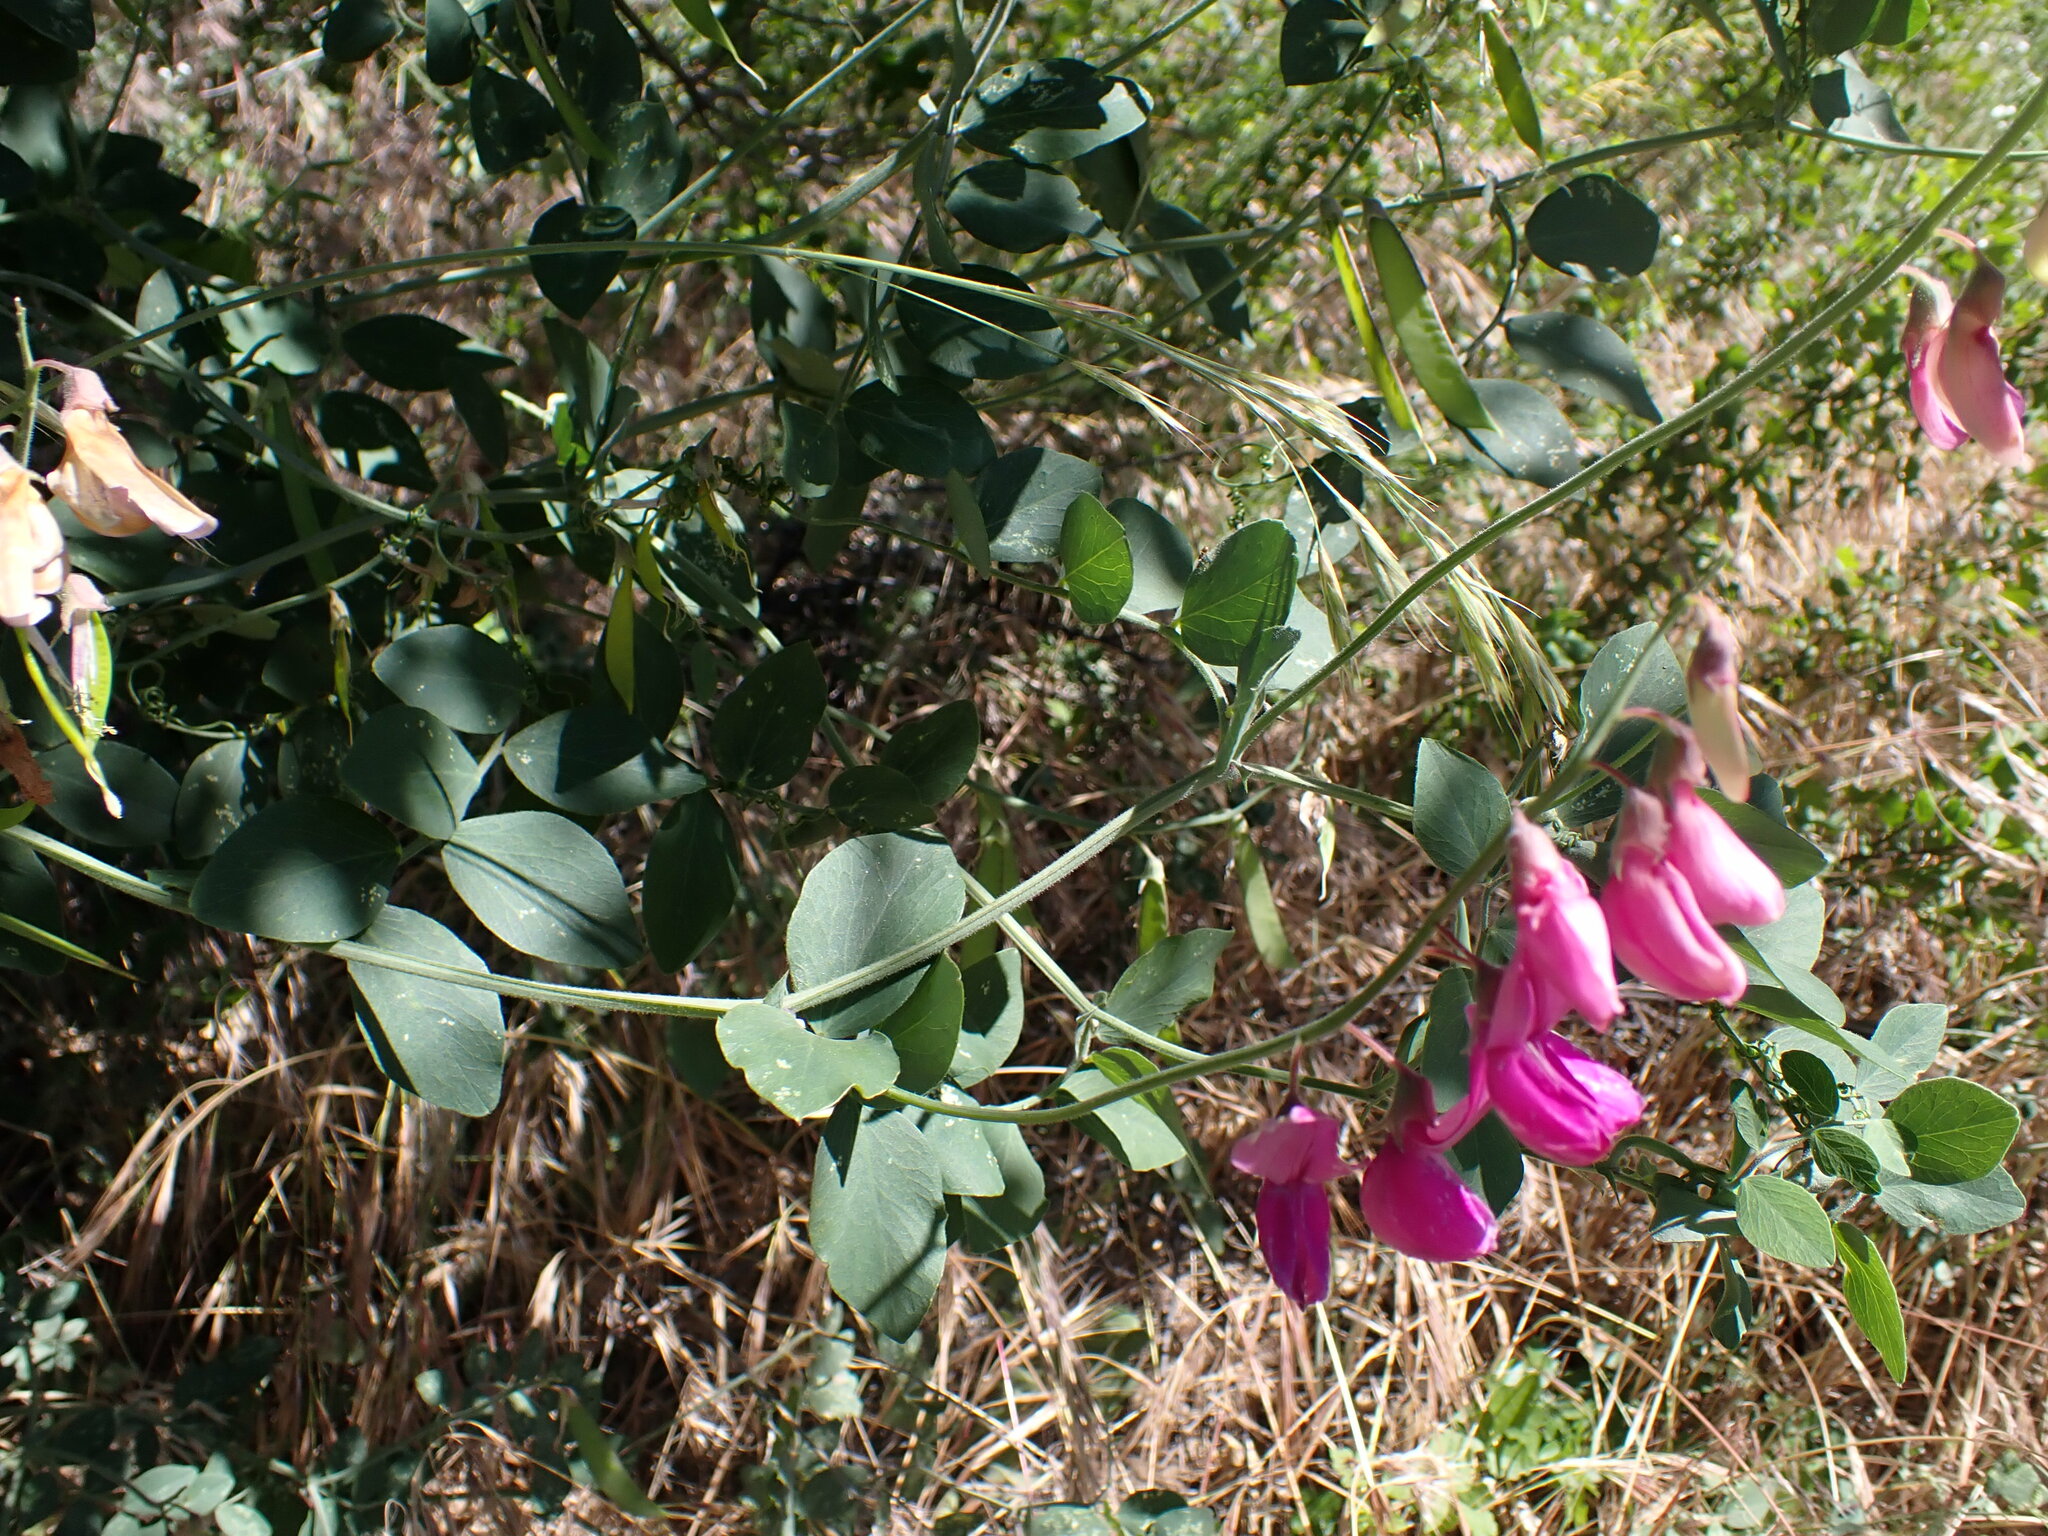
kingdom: Plantae
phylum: Tracheophyta
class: Magnoliopsida
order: Fabales
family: Fabaceae
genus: Lathyrus
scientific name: Lathyrus vestitus
